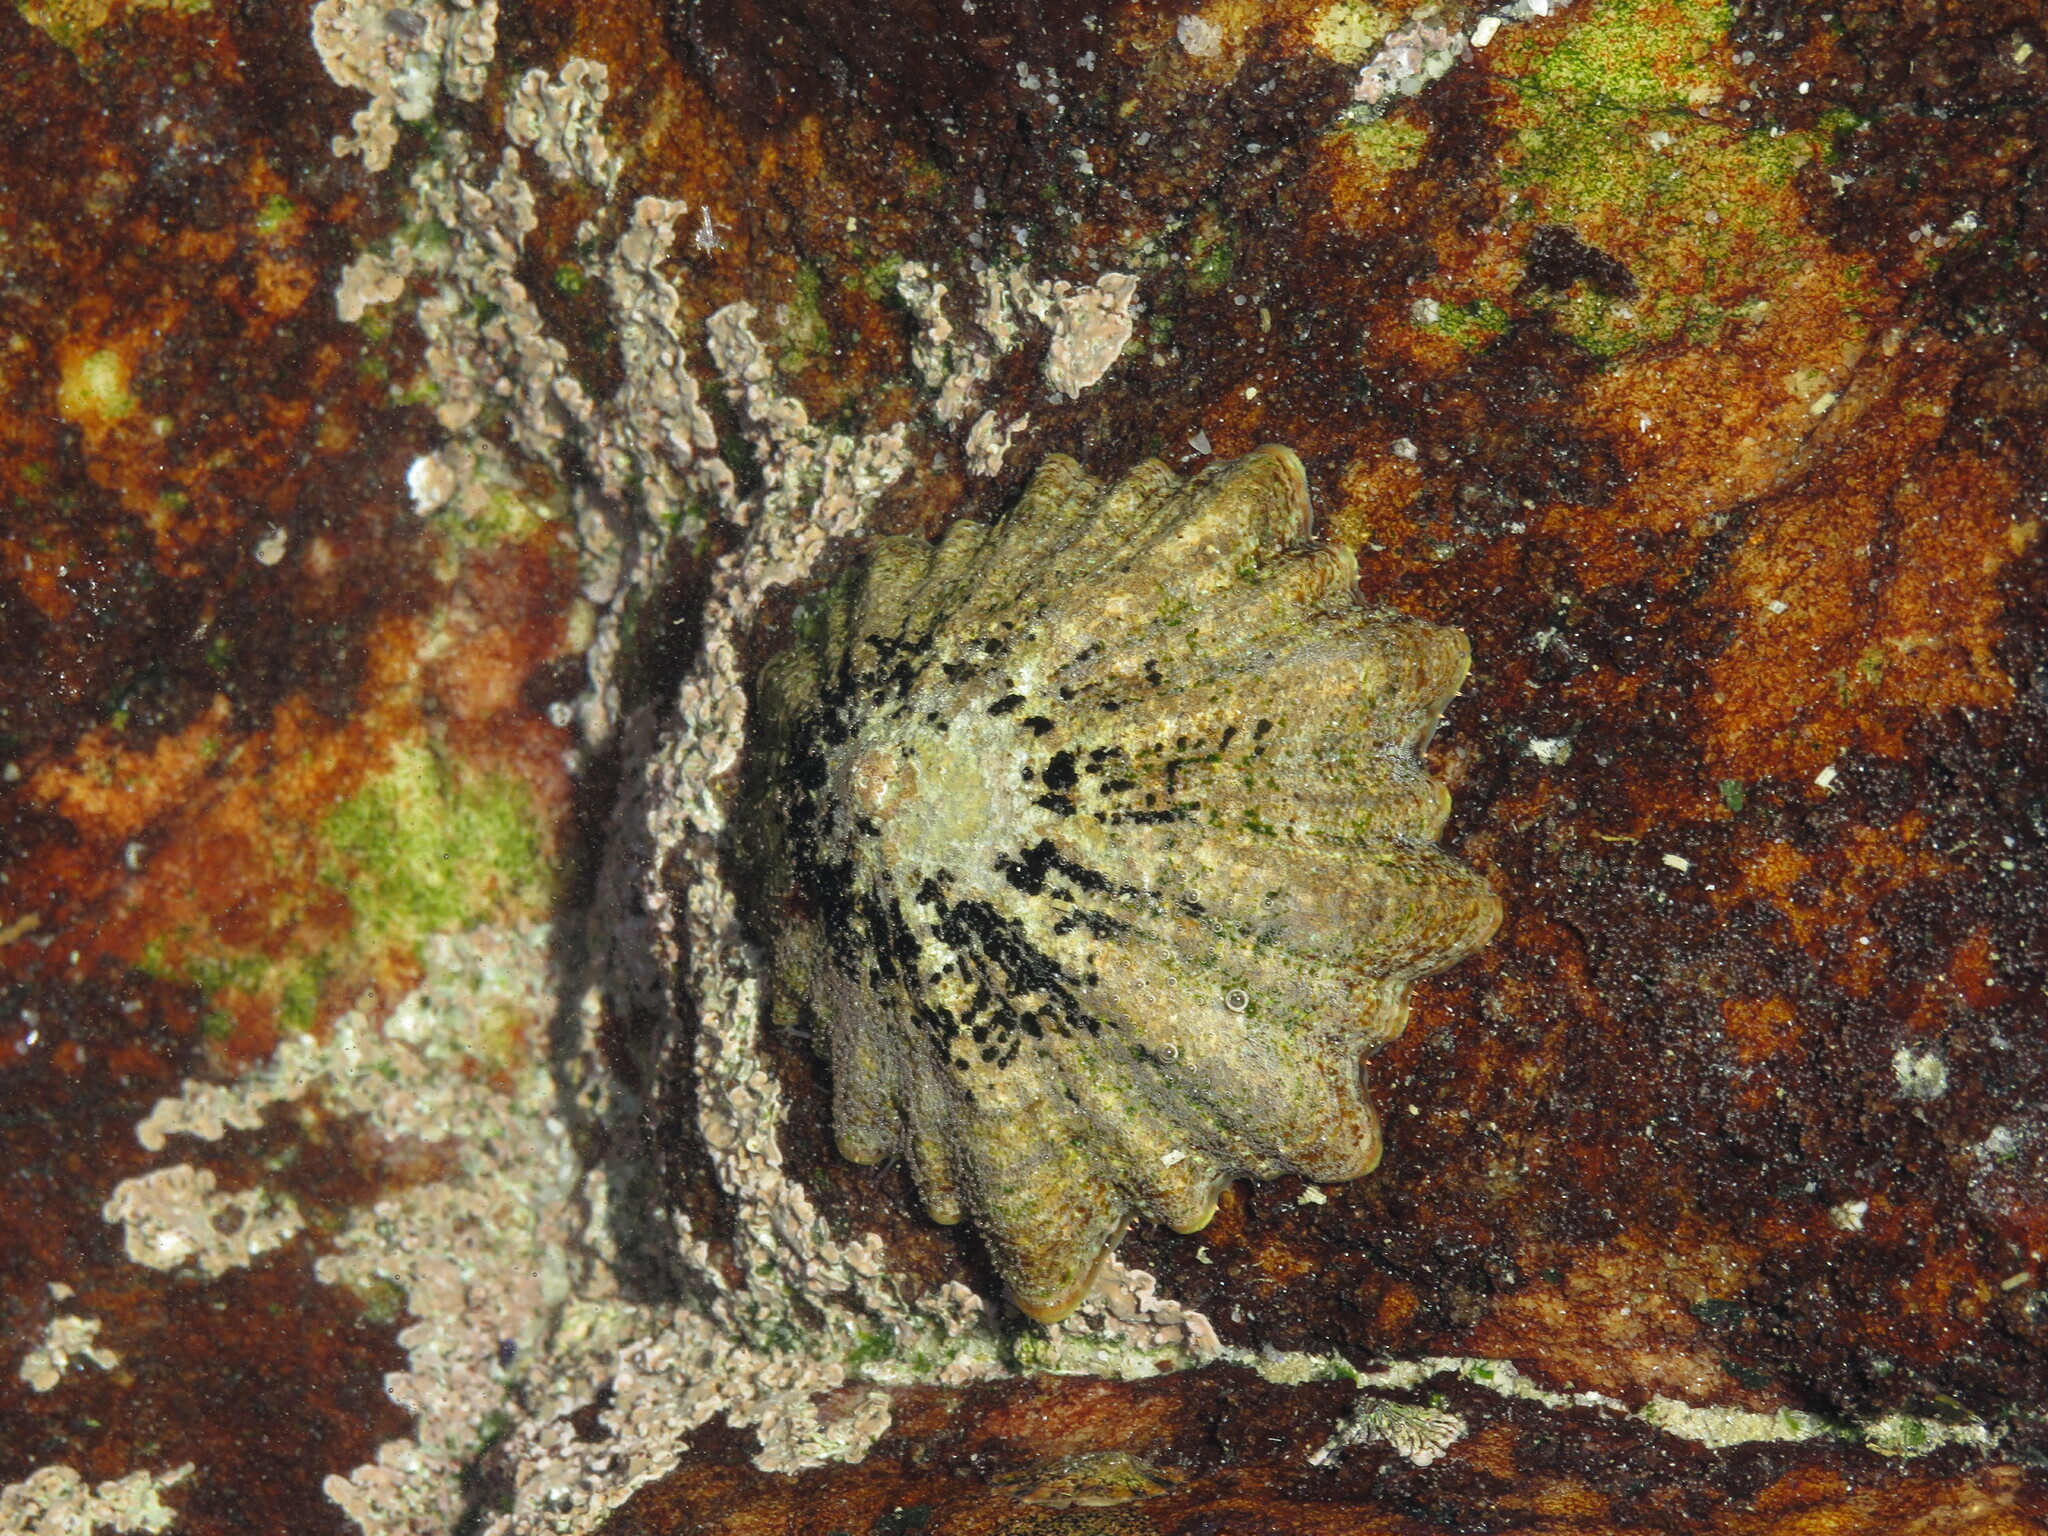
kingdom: Animalia
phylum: Mollusca
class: Gastropoda
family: Patellidae
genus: Scutellastra
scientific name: Scutellastra tabularis
